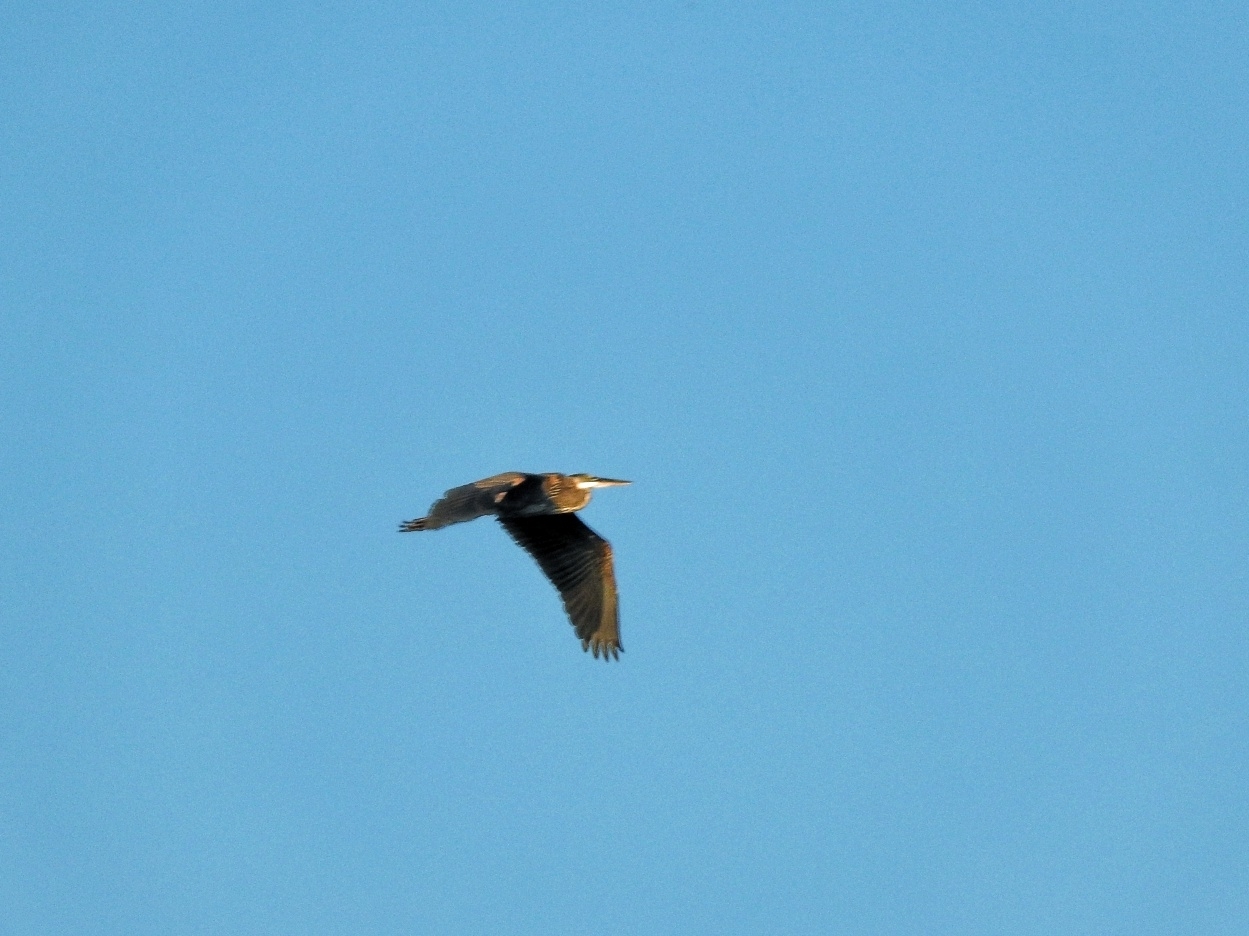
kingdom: Animalia
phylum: Chordata
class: Aves
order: Pelecaniformes
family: Ardeidae
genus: Ardea
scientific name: Ardea herodias
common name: Great blue heron
